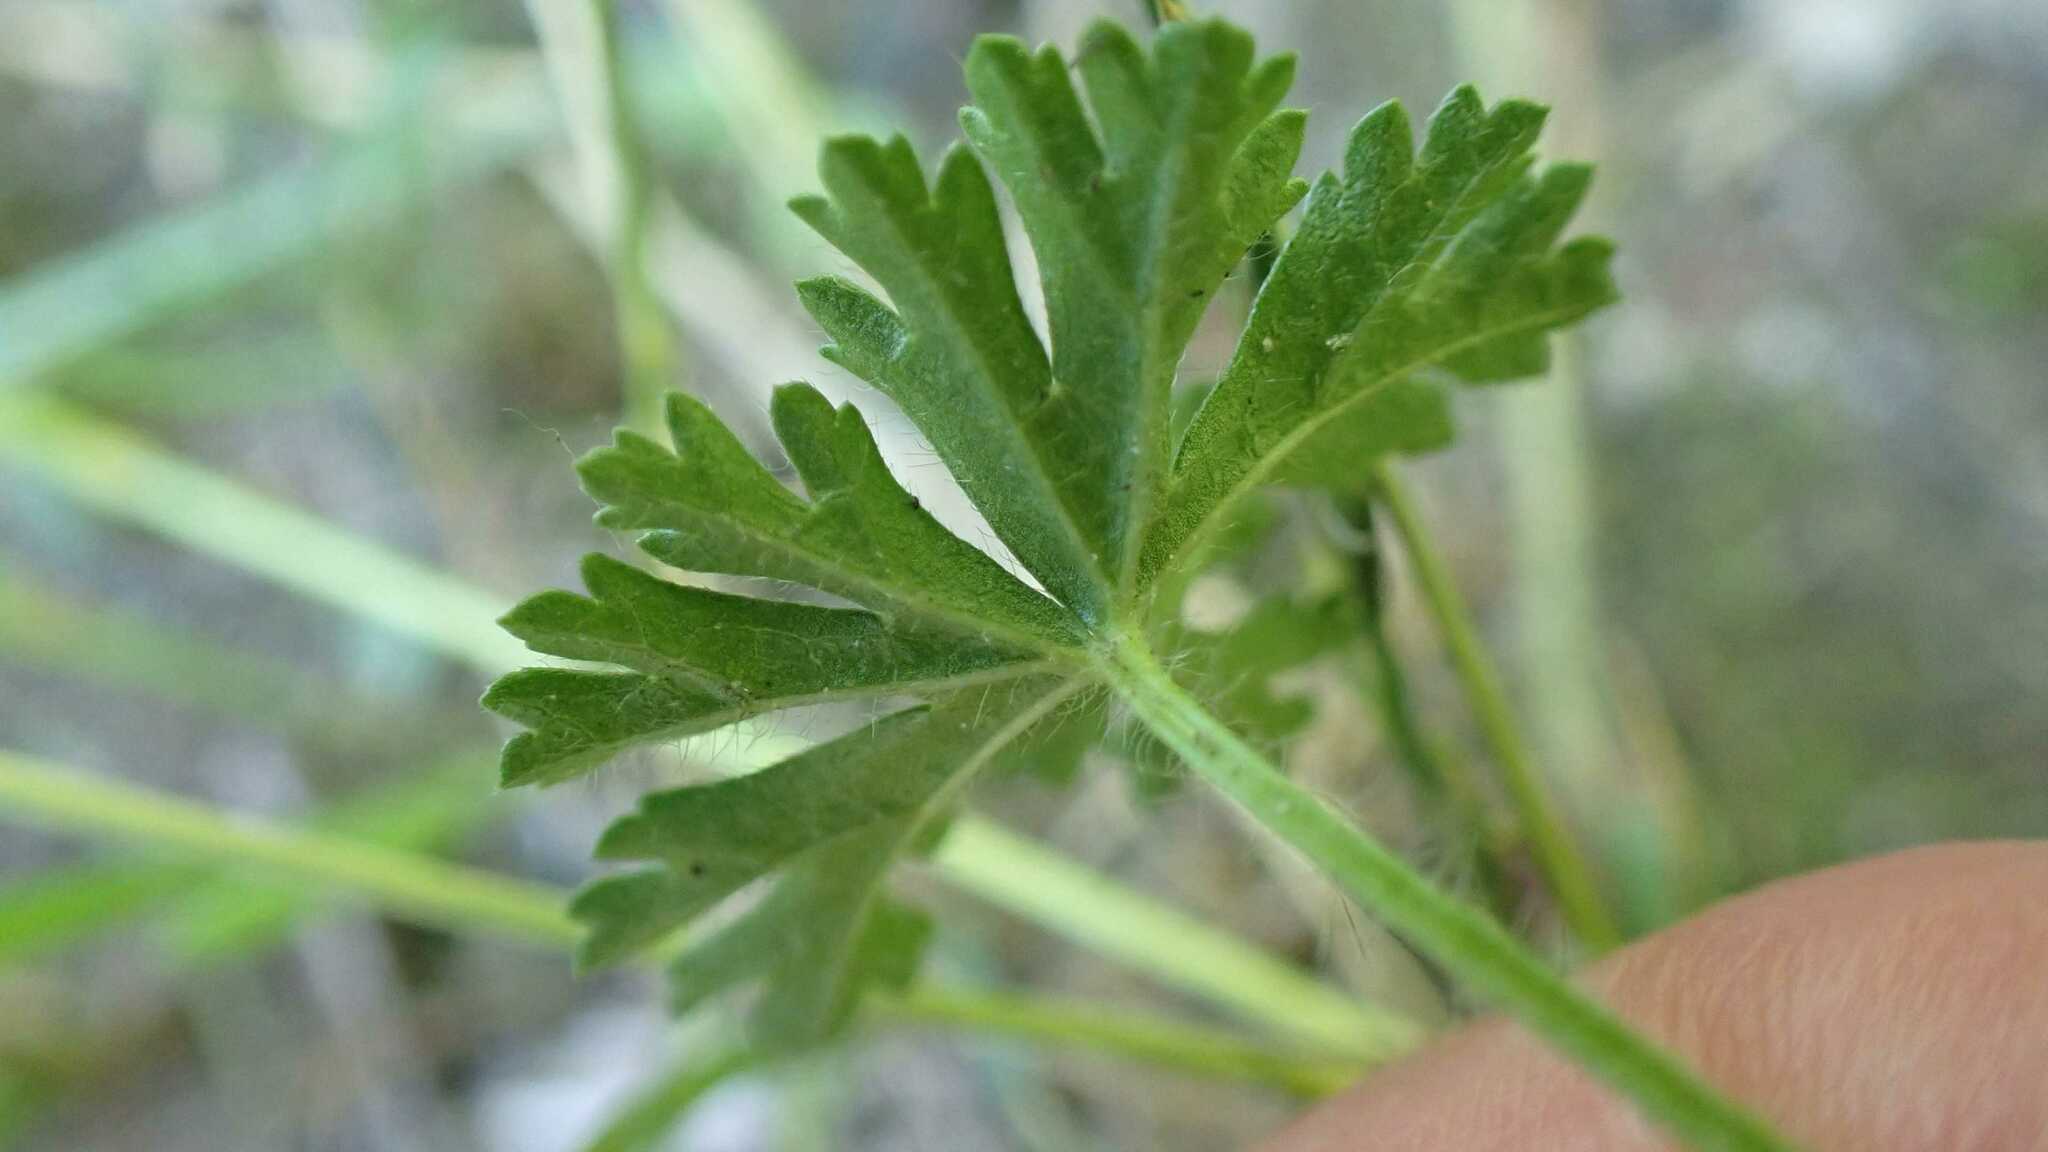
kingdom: Plantae
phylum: Tracheophyta
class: Magnoliopsida
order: Malvales
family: Malvaceae
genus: Malva
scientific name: Malva moschata
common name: Musk mallow
